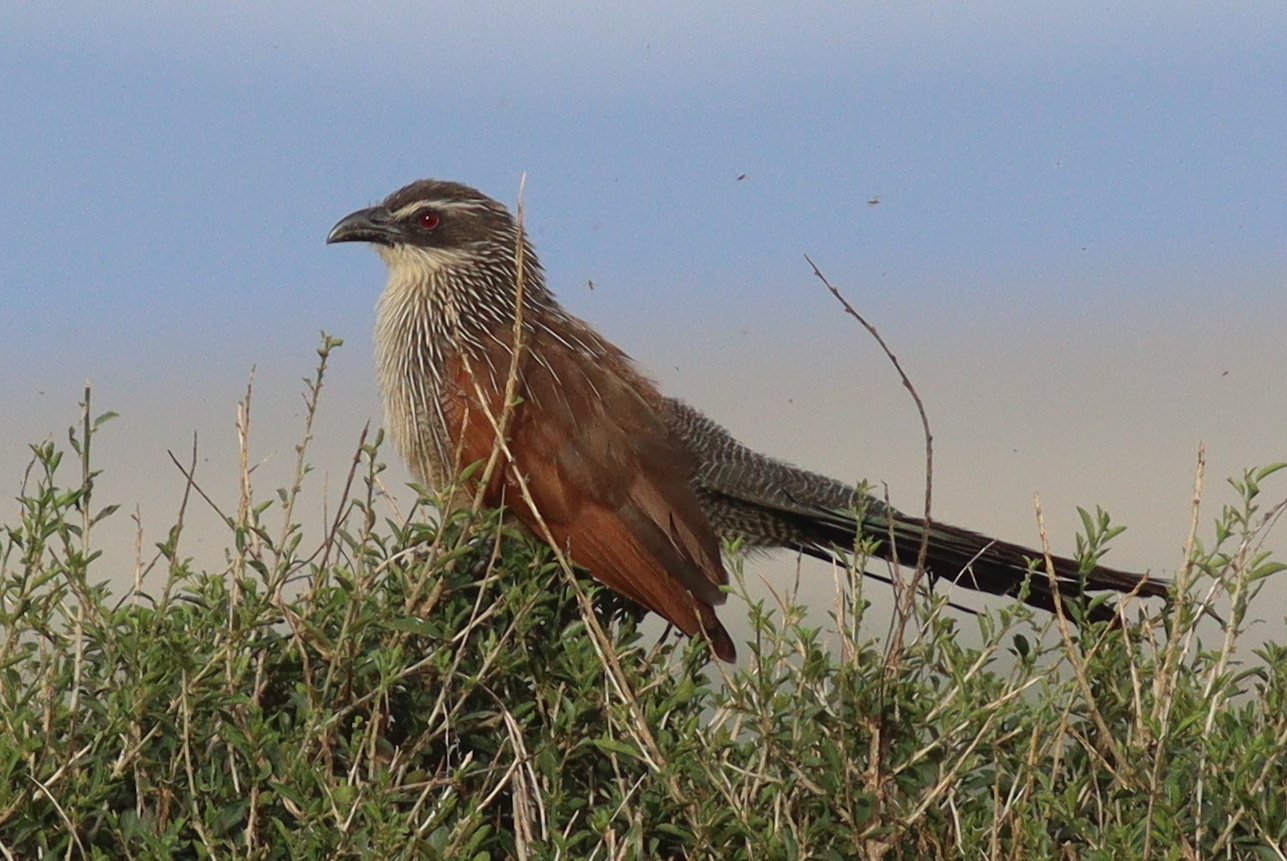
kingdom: Animalia
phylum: Chordata
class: Aves
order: Cuculiformes
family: Cuculidae
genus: Centropus
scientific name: Centropus superciliosus
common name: White-browed coucal
